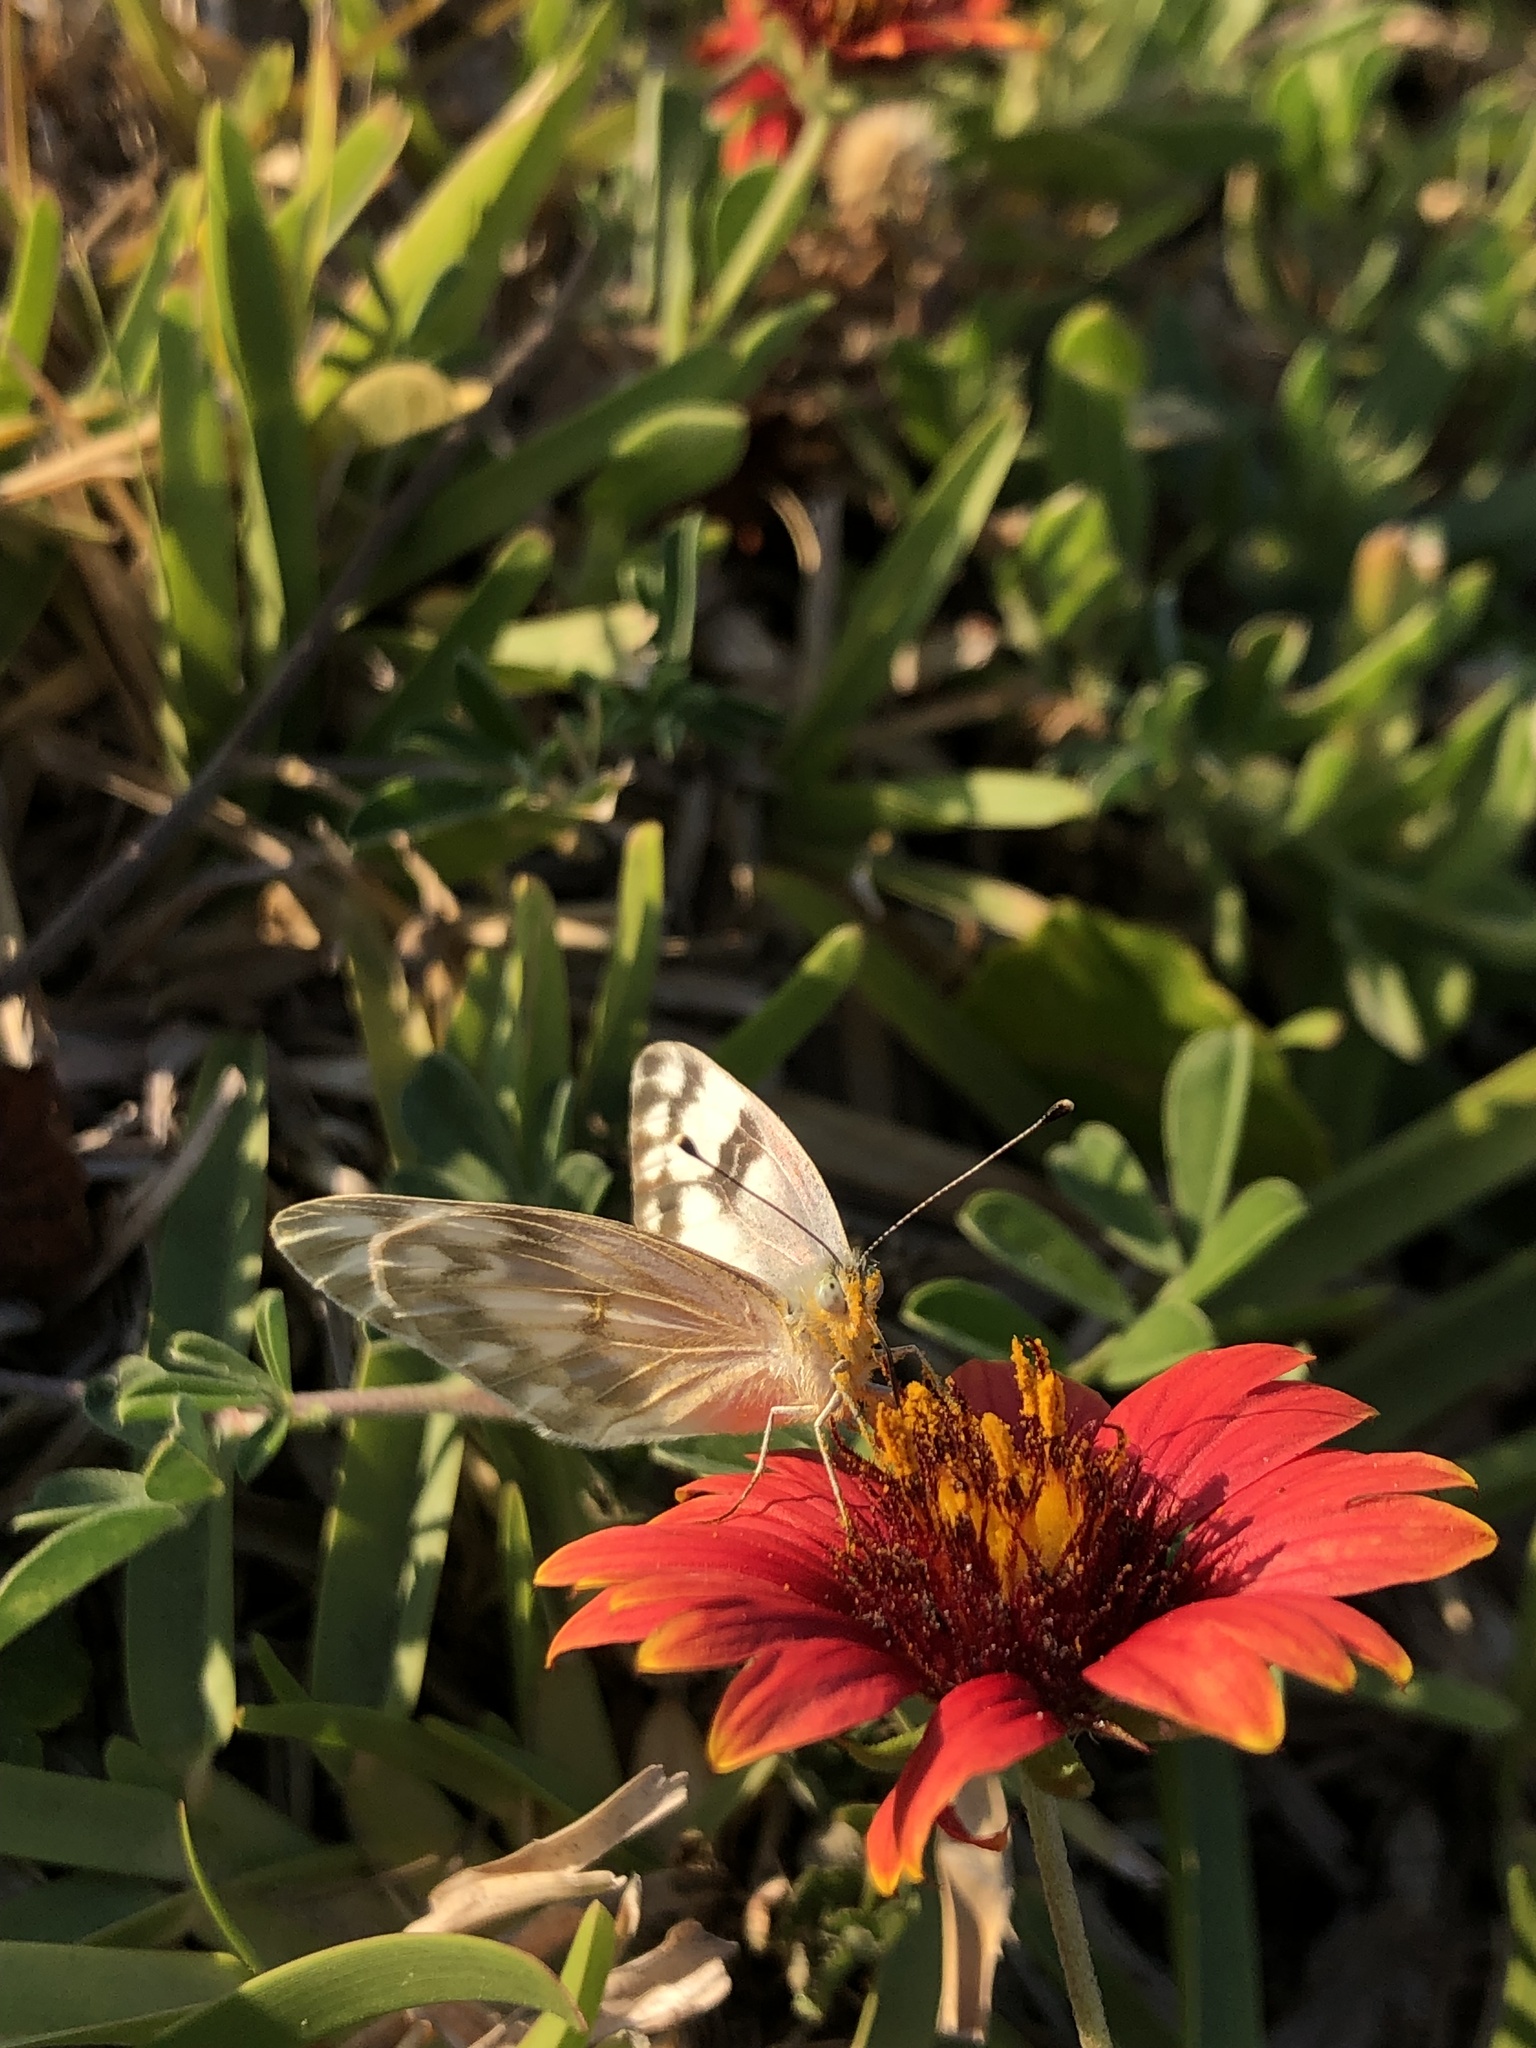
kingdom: Animalia
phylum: Arthropoda
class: Insecta
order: Lepidoptera
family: Pieridae
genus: Pontia
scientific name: Pontia protodice
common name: Checkered white
